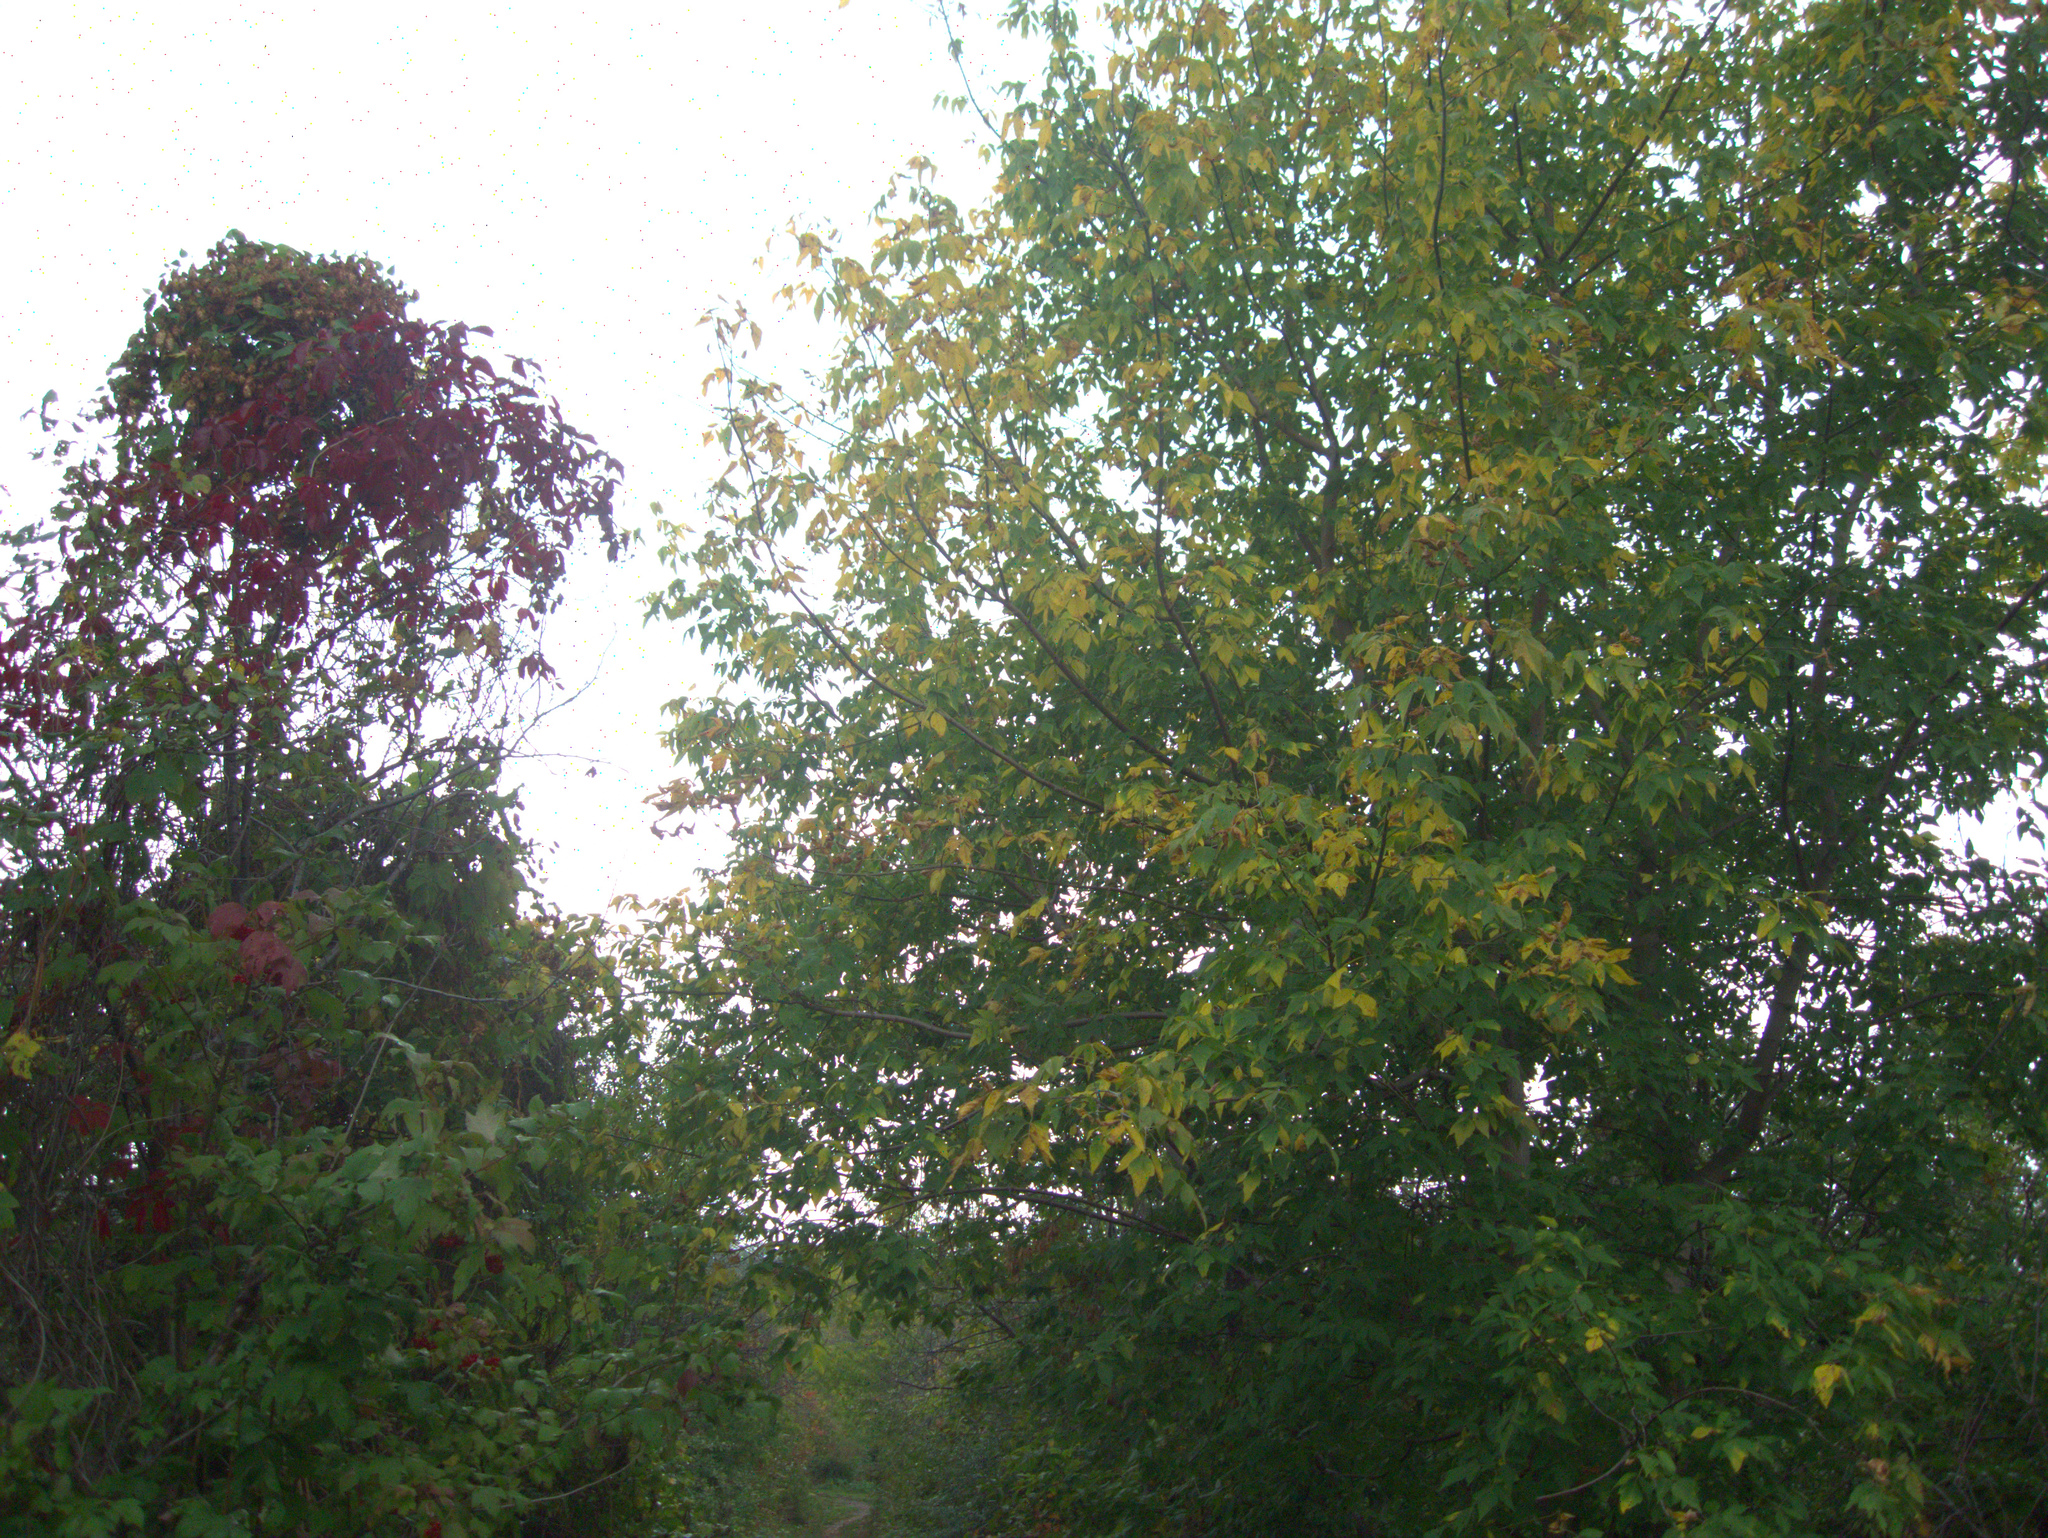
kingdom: Plantae
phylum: Tracheophyta
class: Magnoliopsida
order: Sapindales
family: Sapindaceae
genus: Acer
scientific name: Acer negundo
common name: Ashleaf maple
